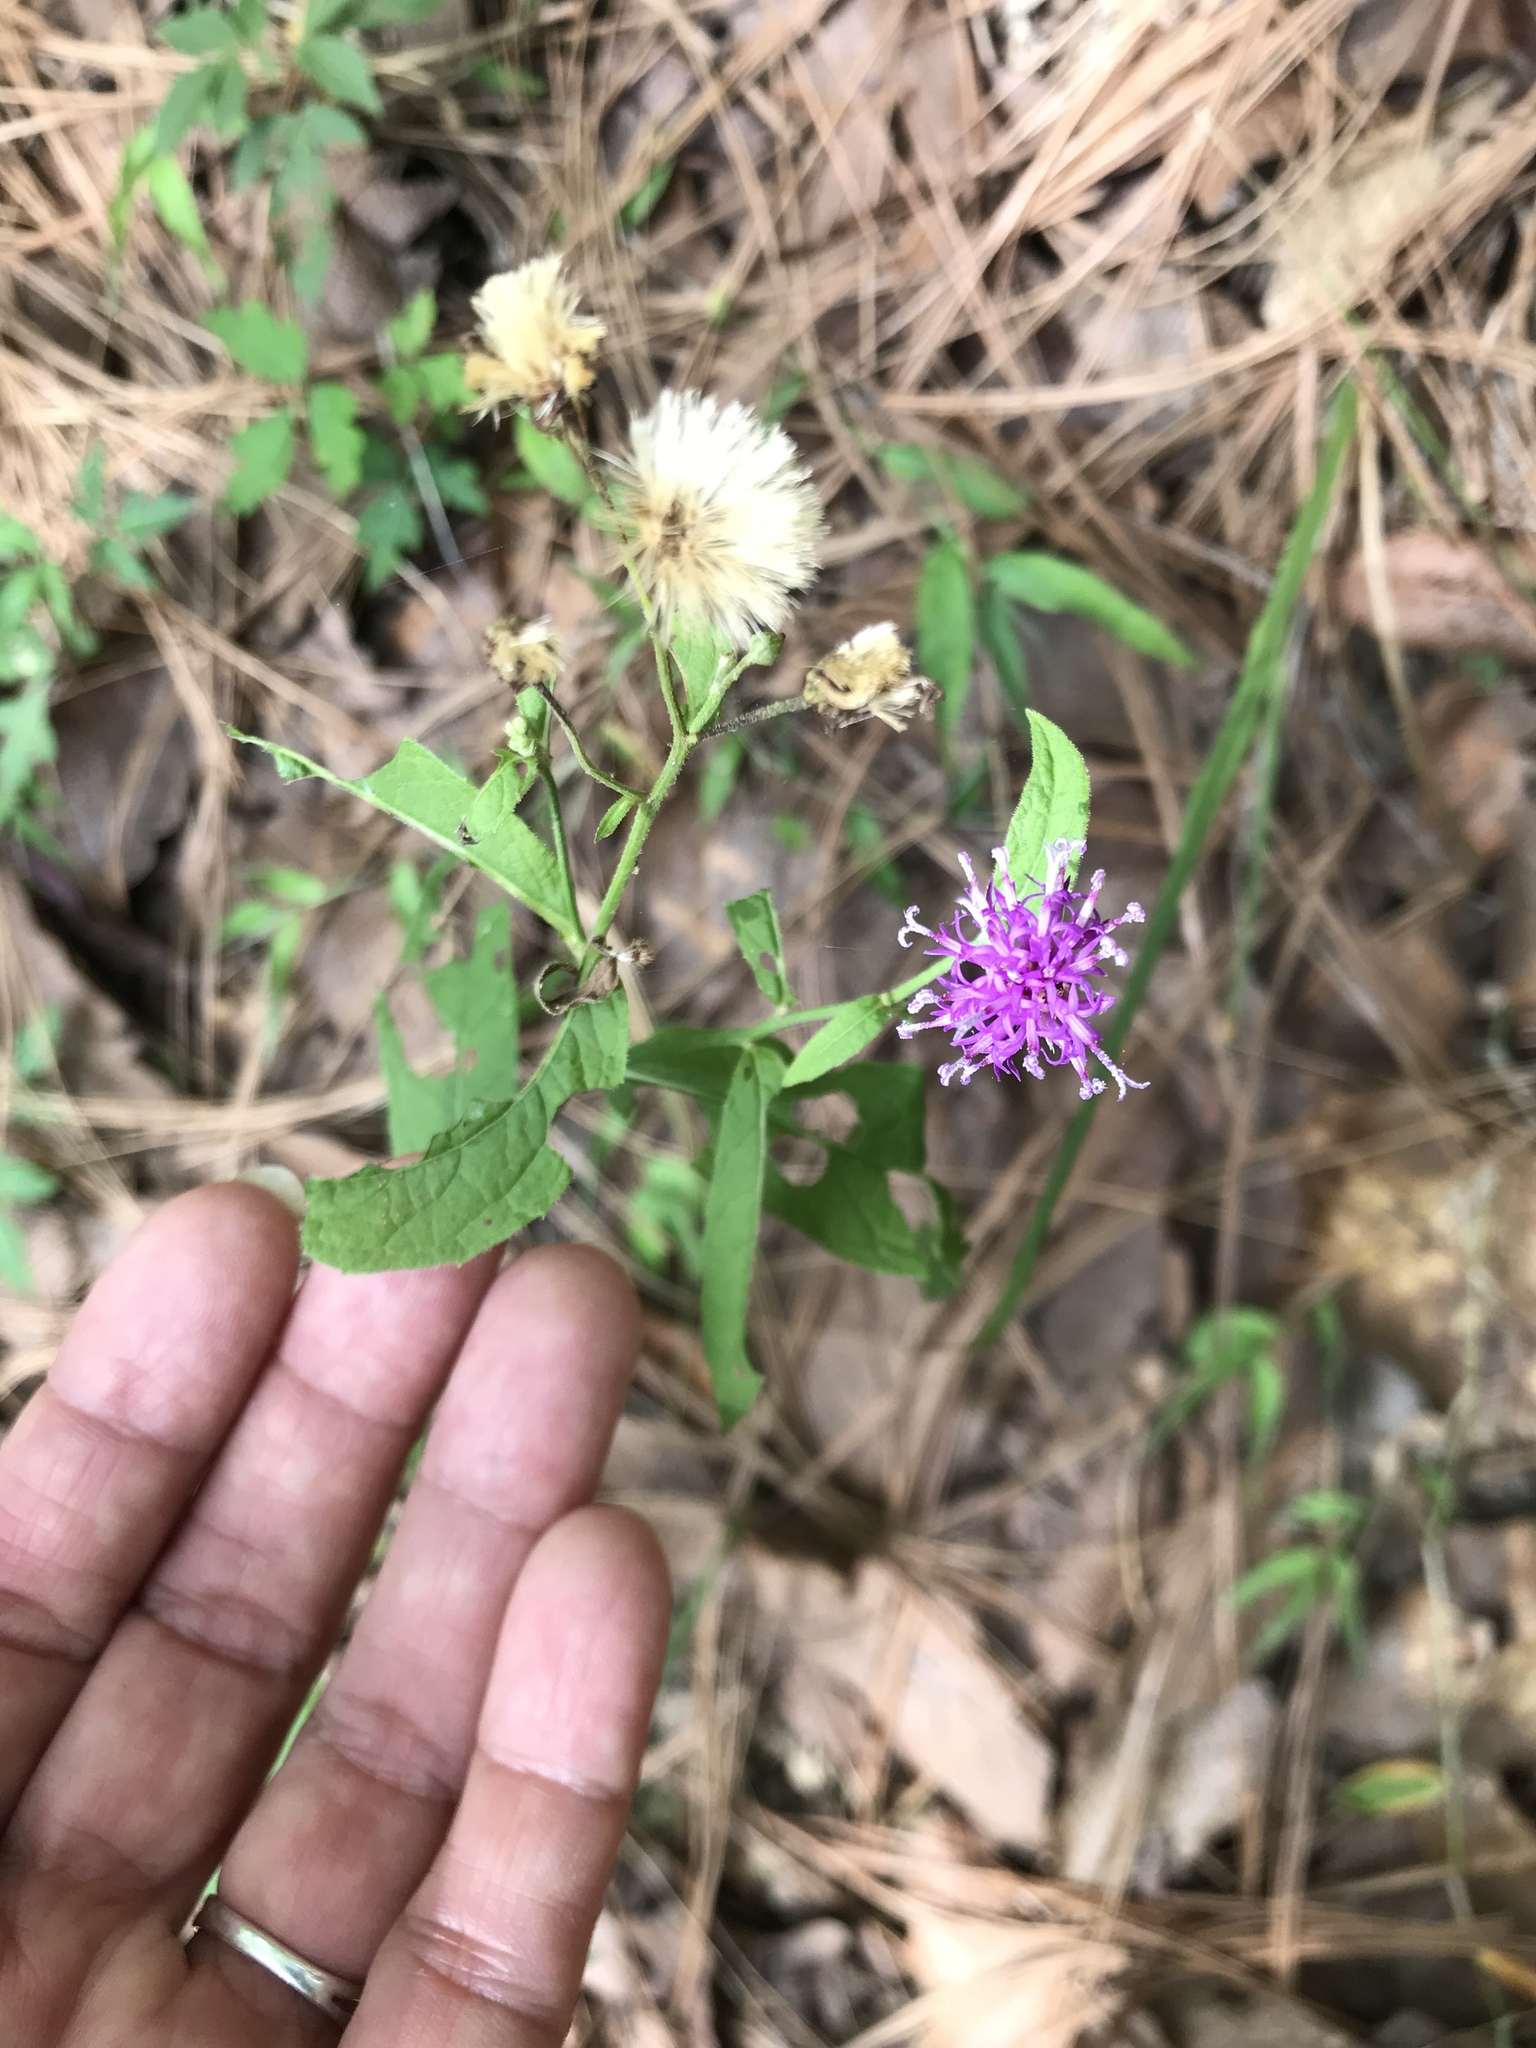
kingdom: Plantae
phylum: Tracheophyta
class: Magnoliopsida
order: Asterales
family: Asteraceae
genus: Vernonia
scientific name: Vernonia greggii
